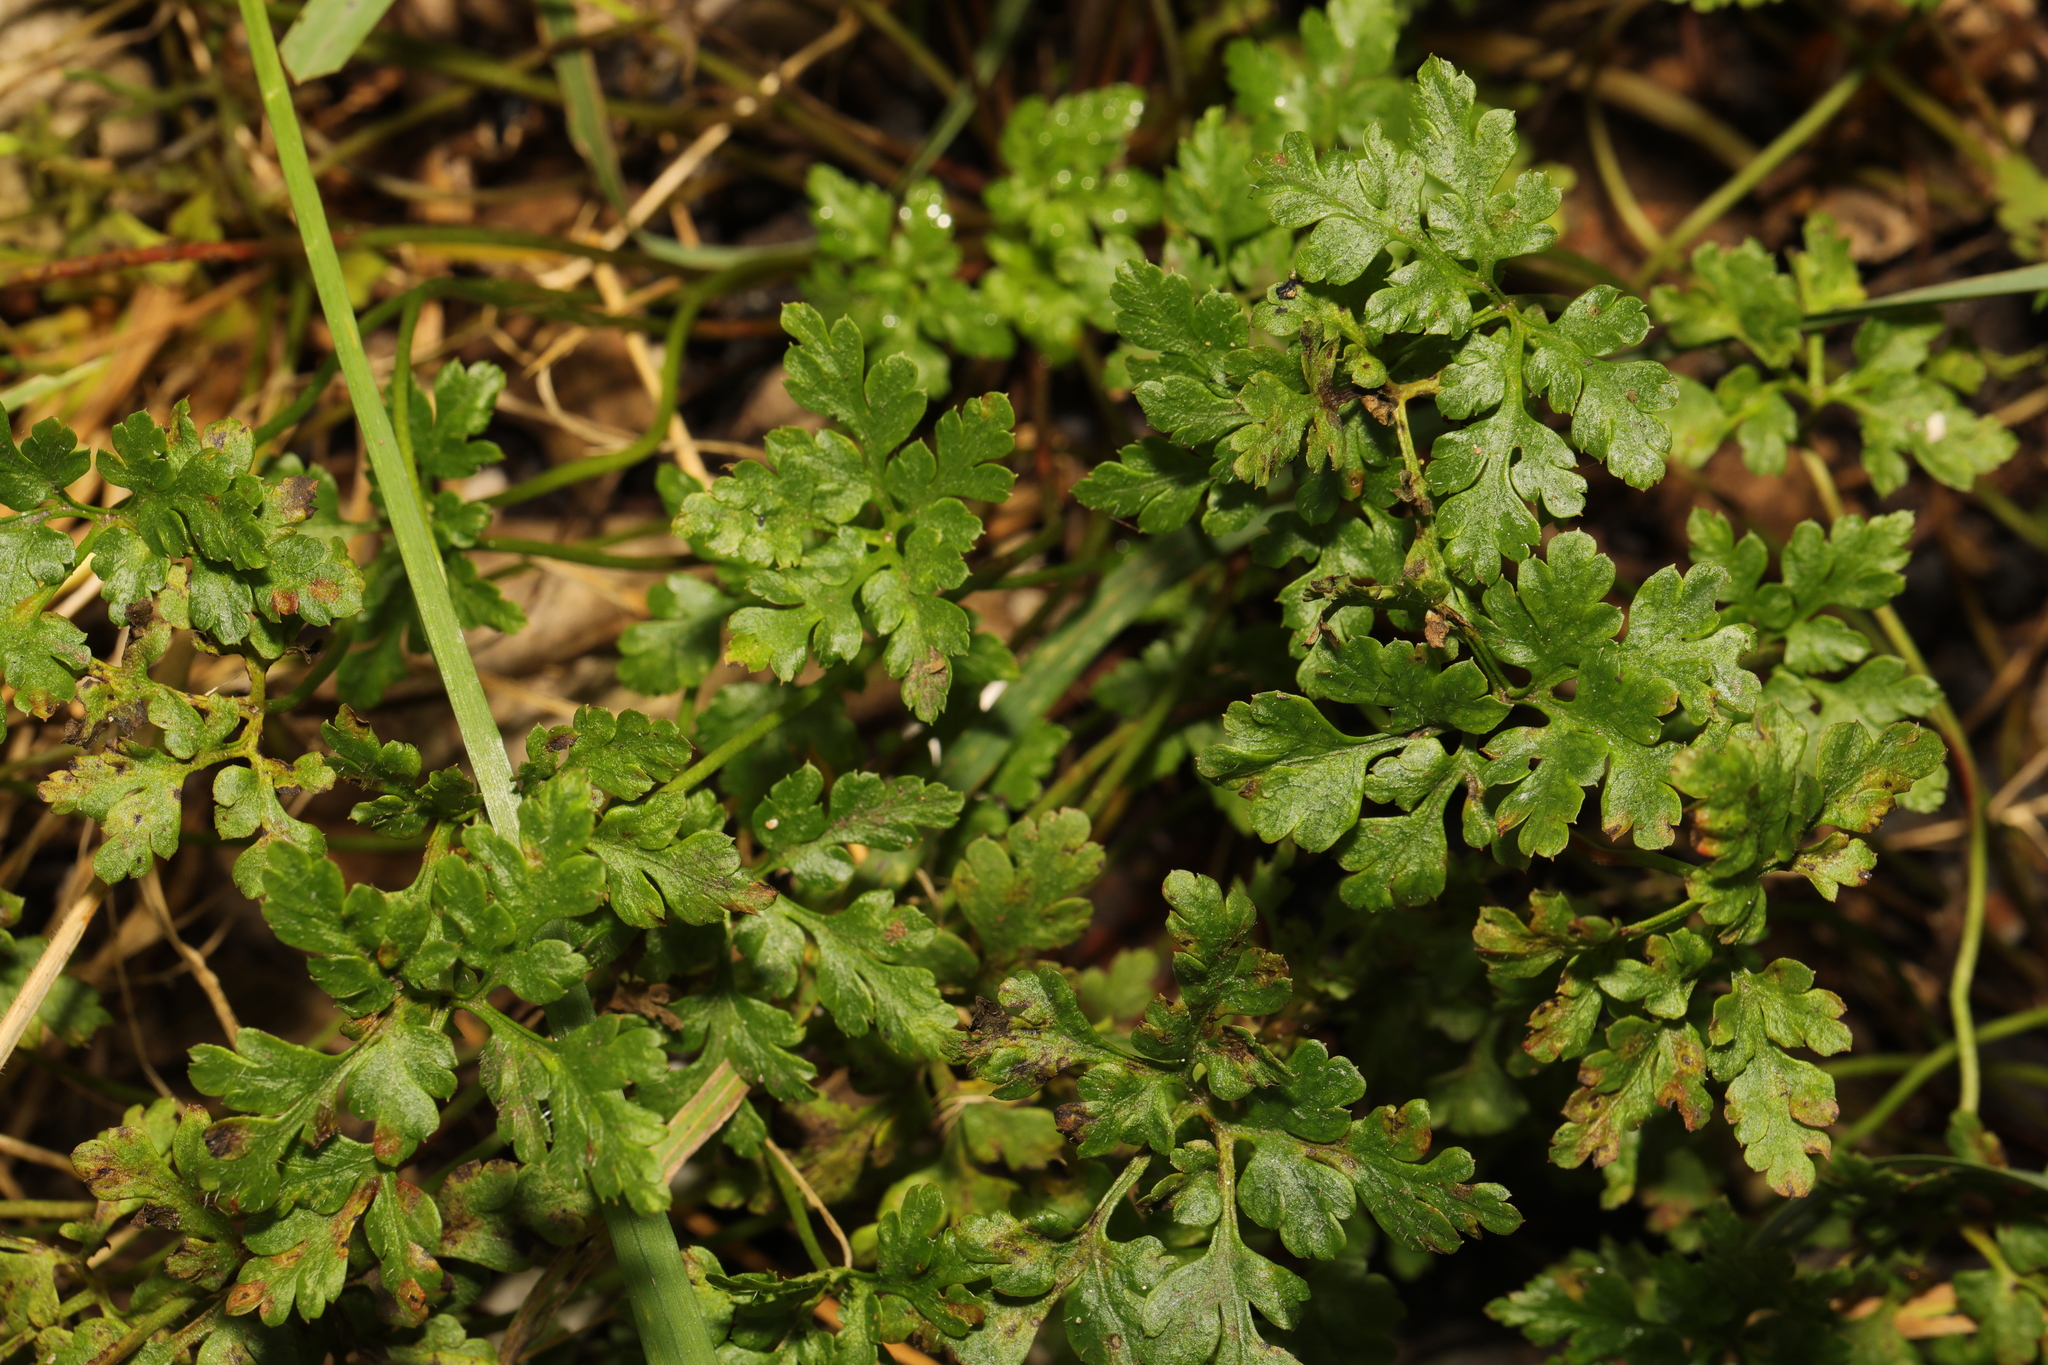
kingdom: Plantae
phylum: Tracheophyta
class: Magnoliopsida
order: Asterales
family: Asteraceae
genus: Tanacetum
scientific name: Tanacetum parthenium
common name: Feverfew
